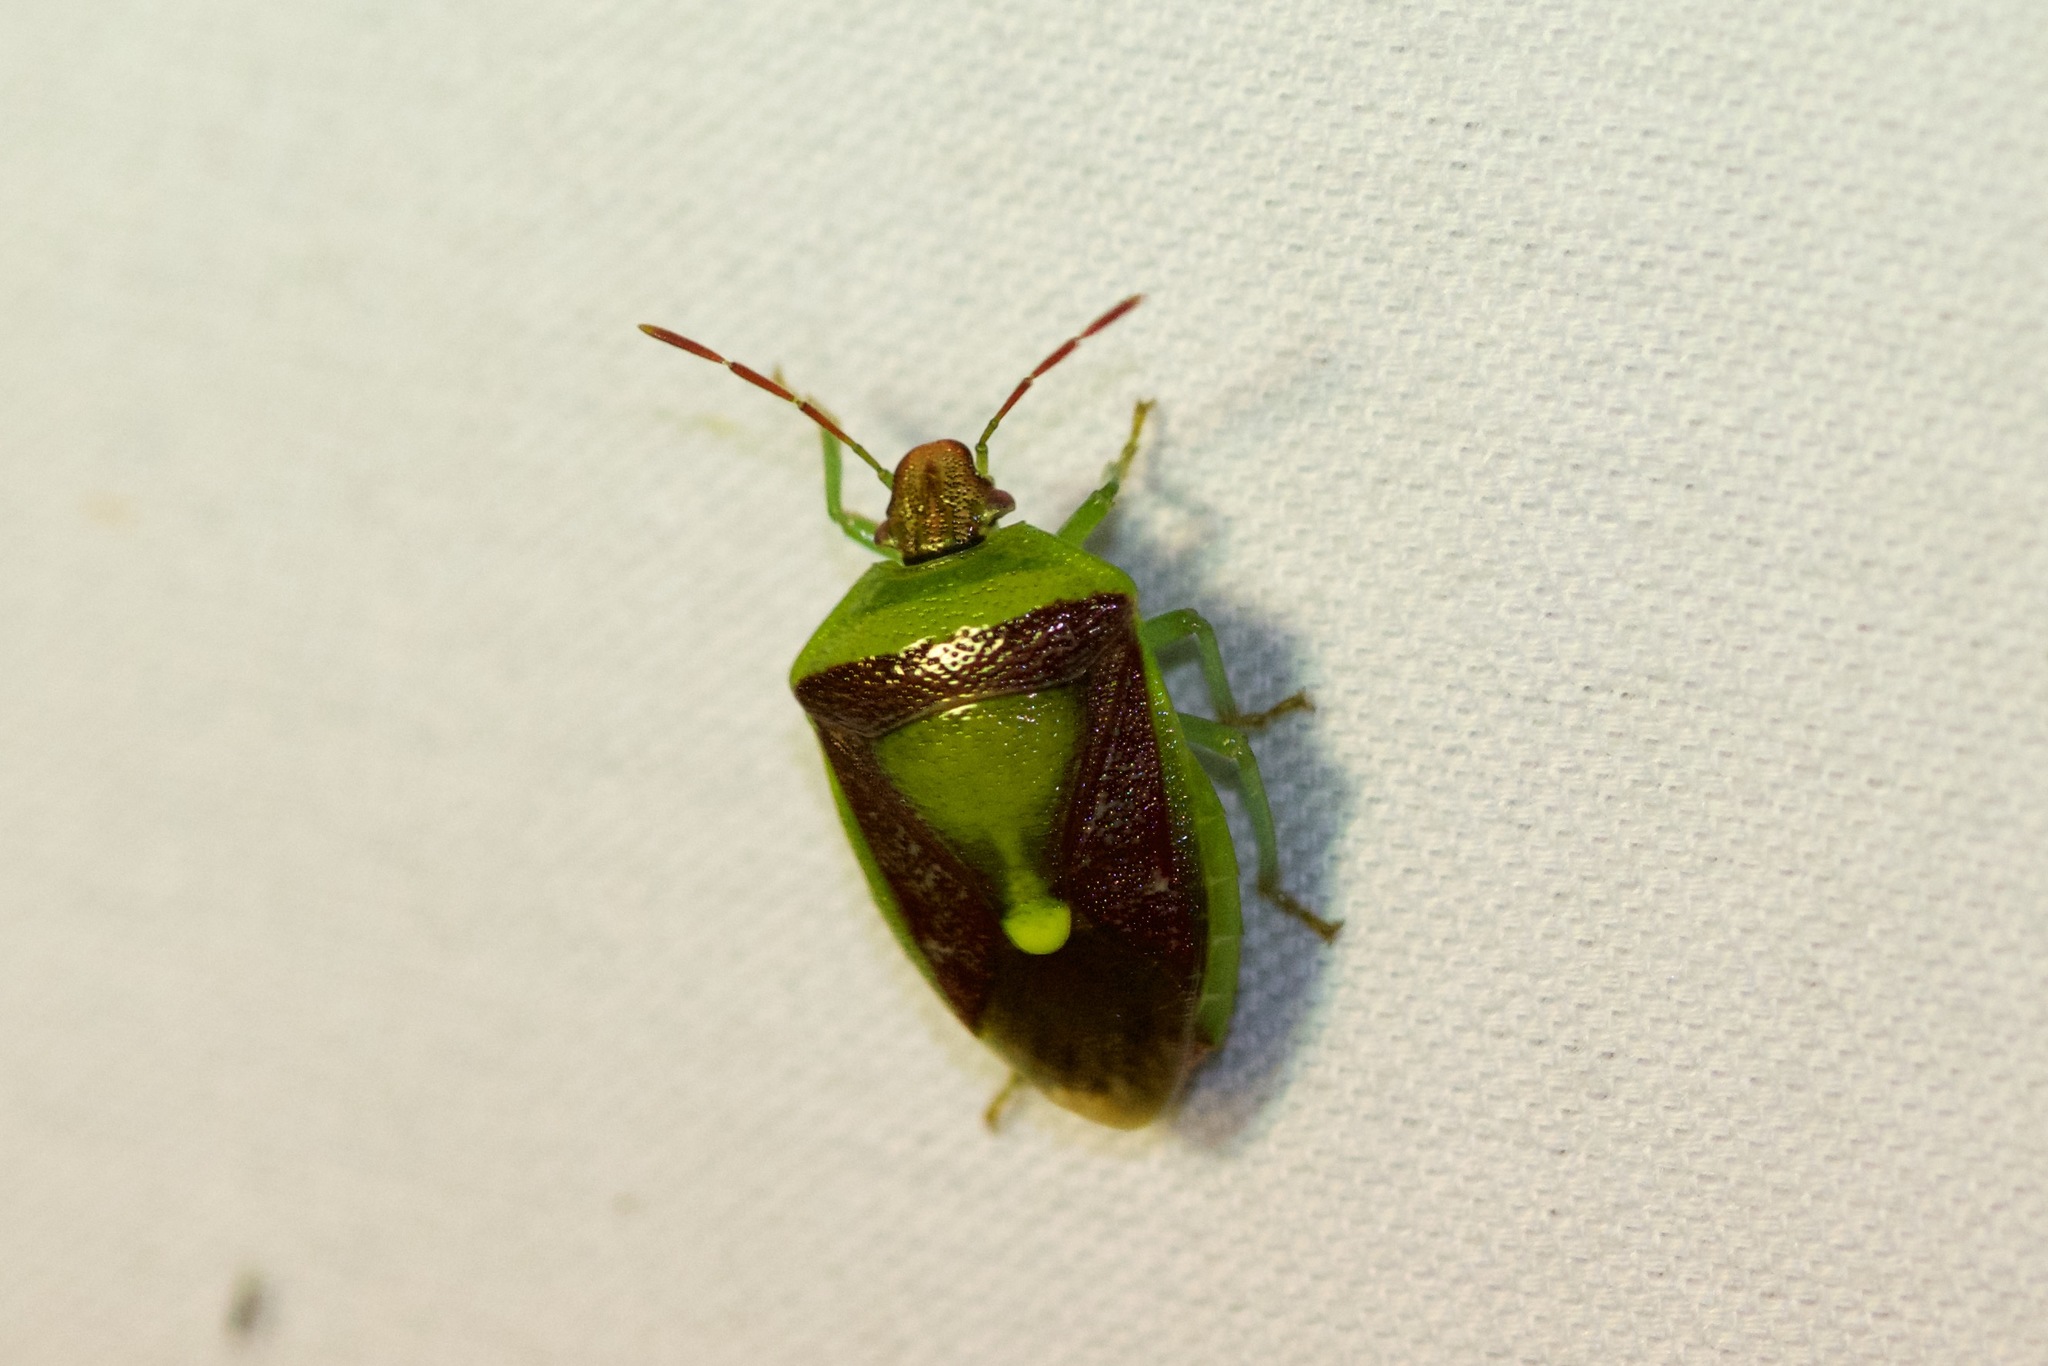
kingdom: Animalia
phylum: Arthropoda
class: Insecta
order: Hemiptera
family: Pentatomidae
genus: Banasa
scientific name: Banasa dimidiata
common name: Green burgundy stink bug
